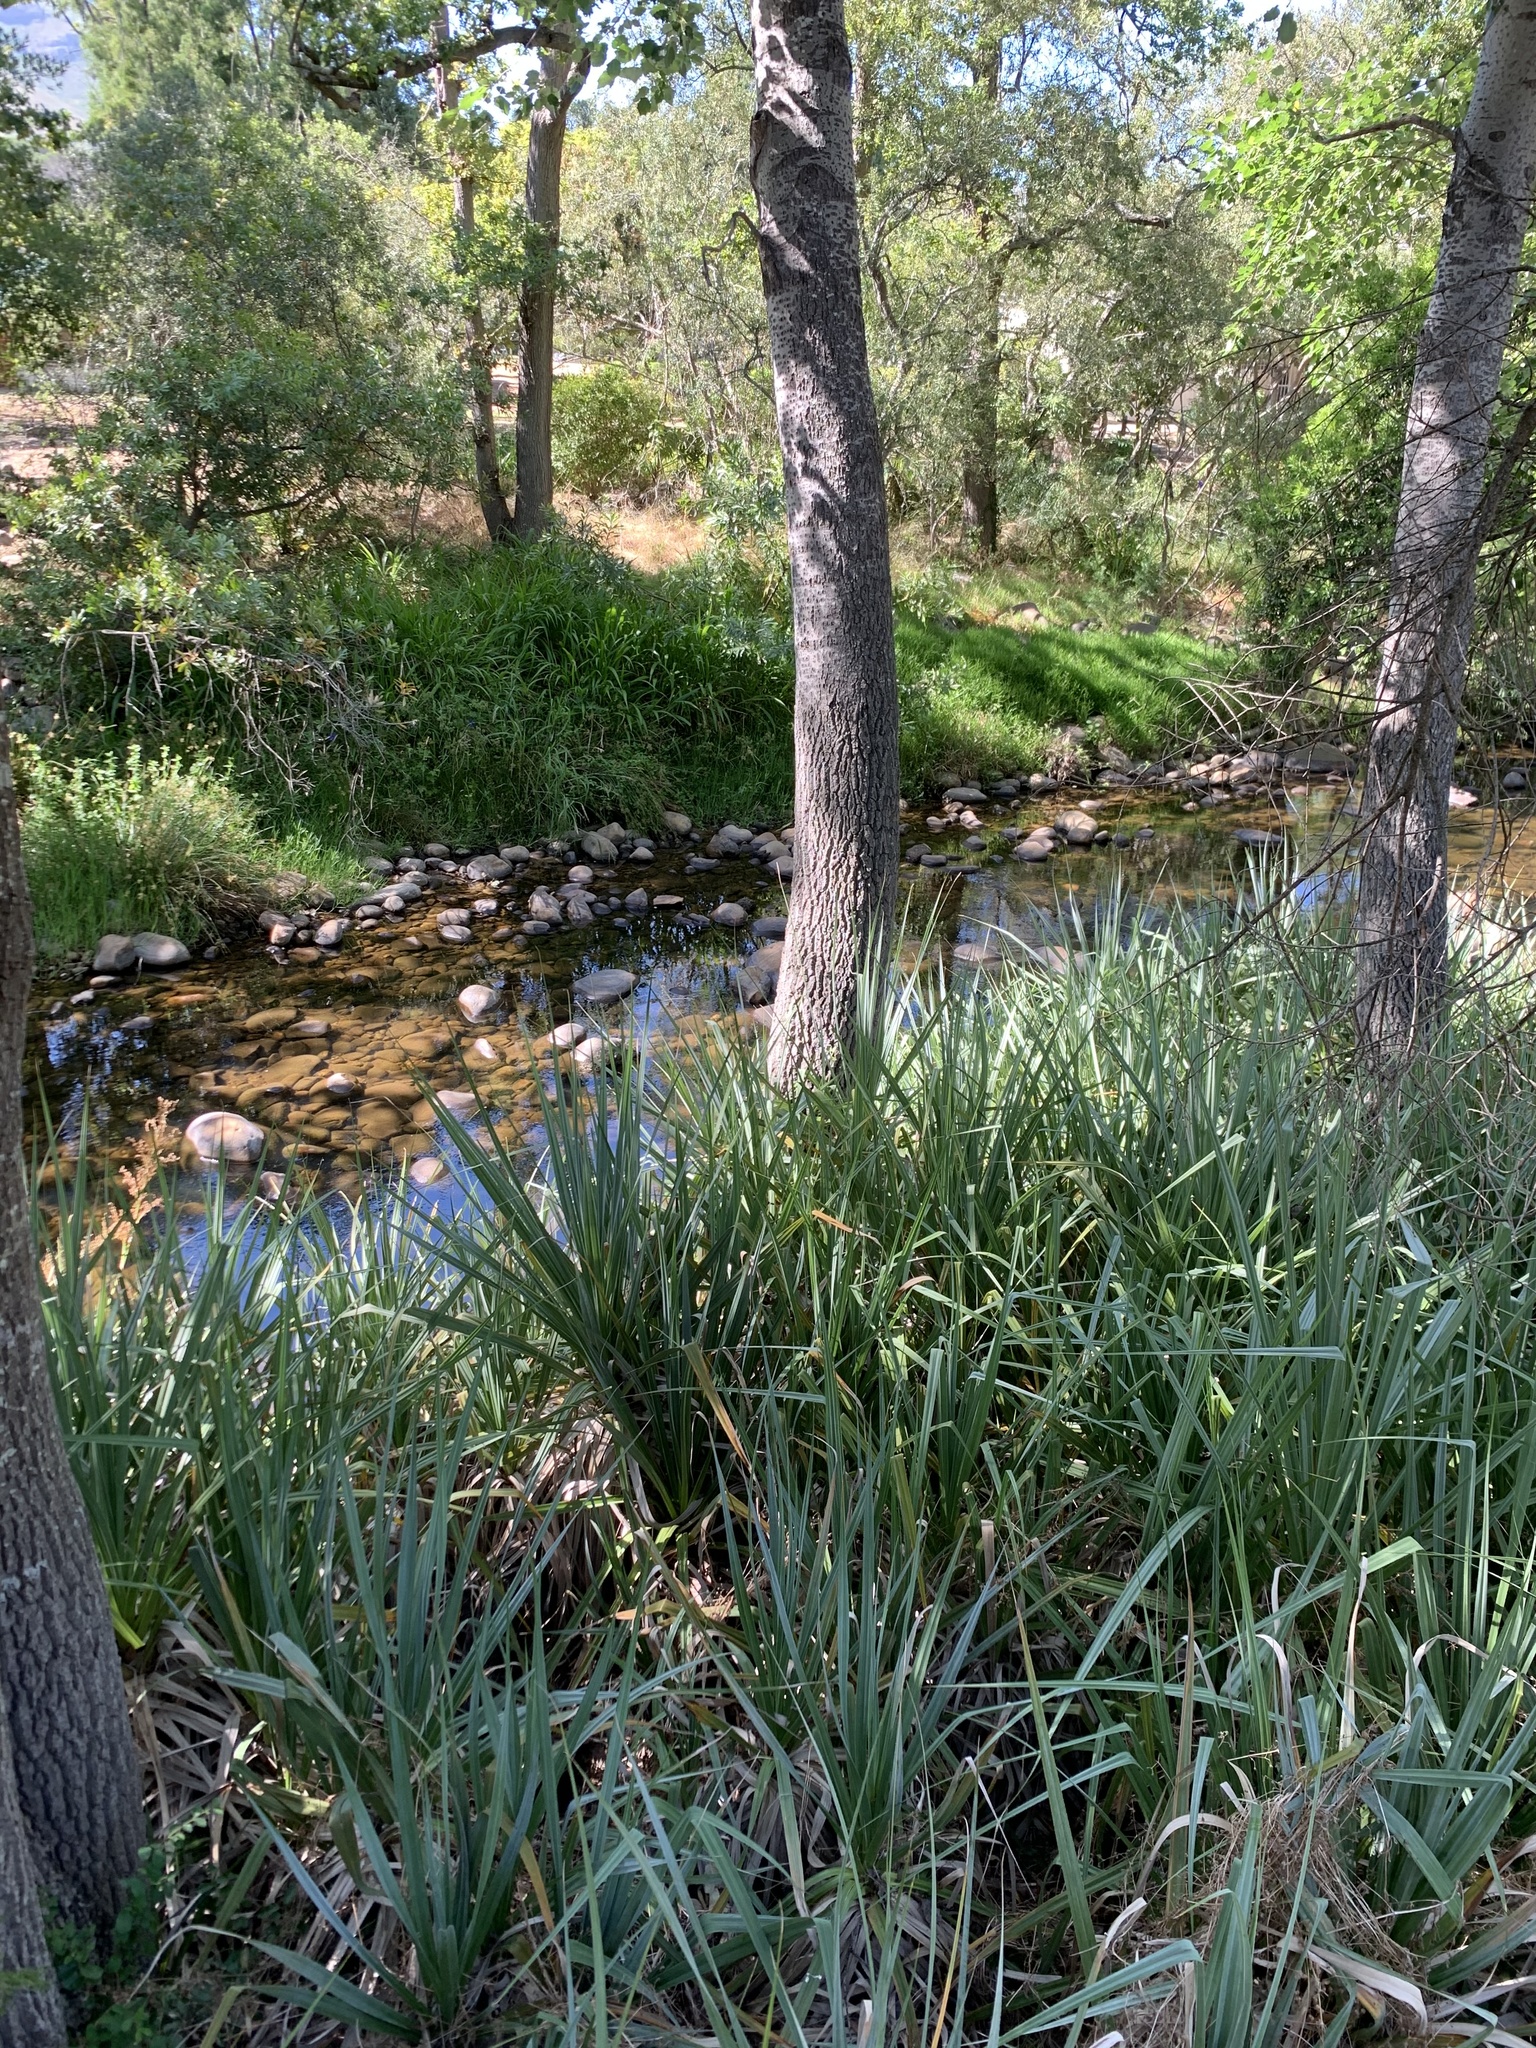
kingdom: Plantae
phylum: Tracheophyta
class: Liliopsida
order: Poales
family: Thurniaceae
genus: Prionium
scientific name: Prionium serratum
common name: Palmiet
